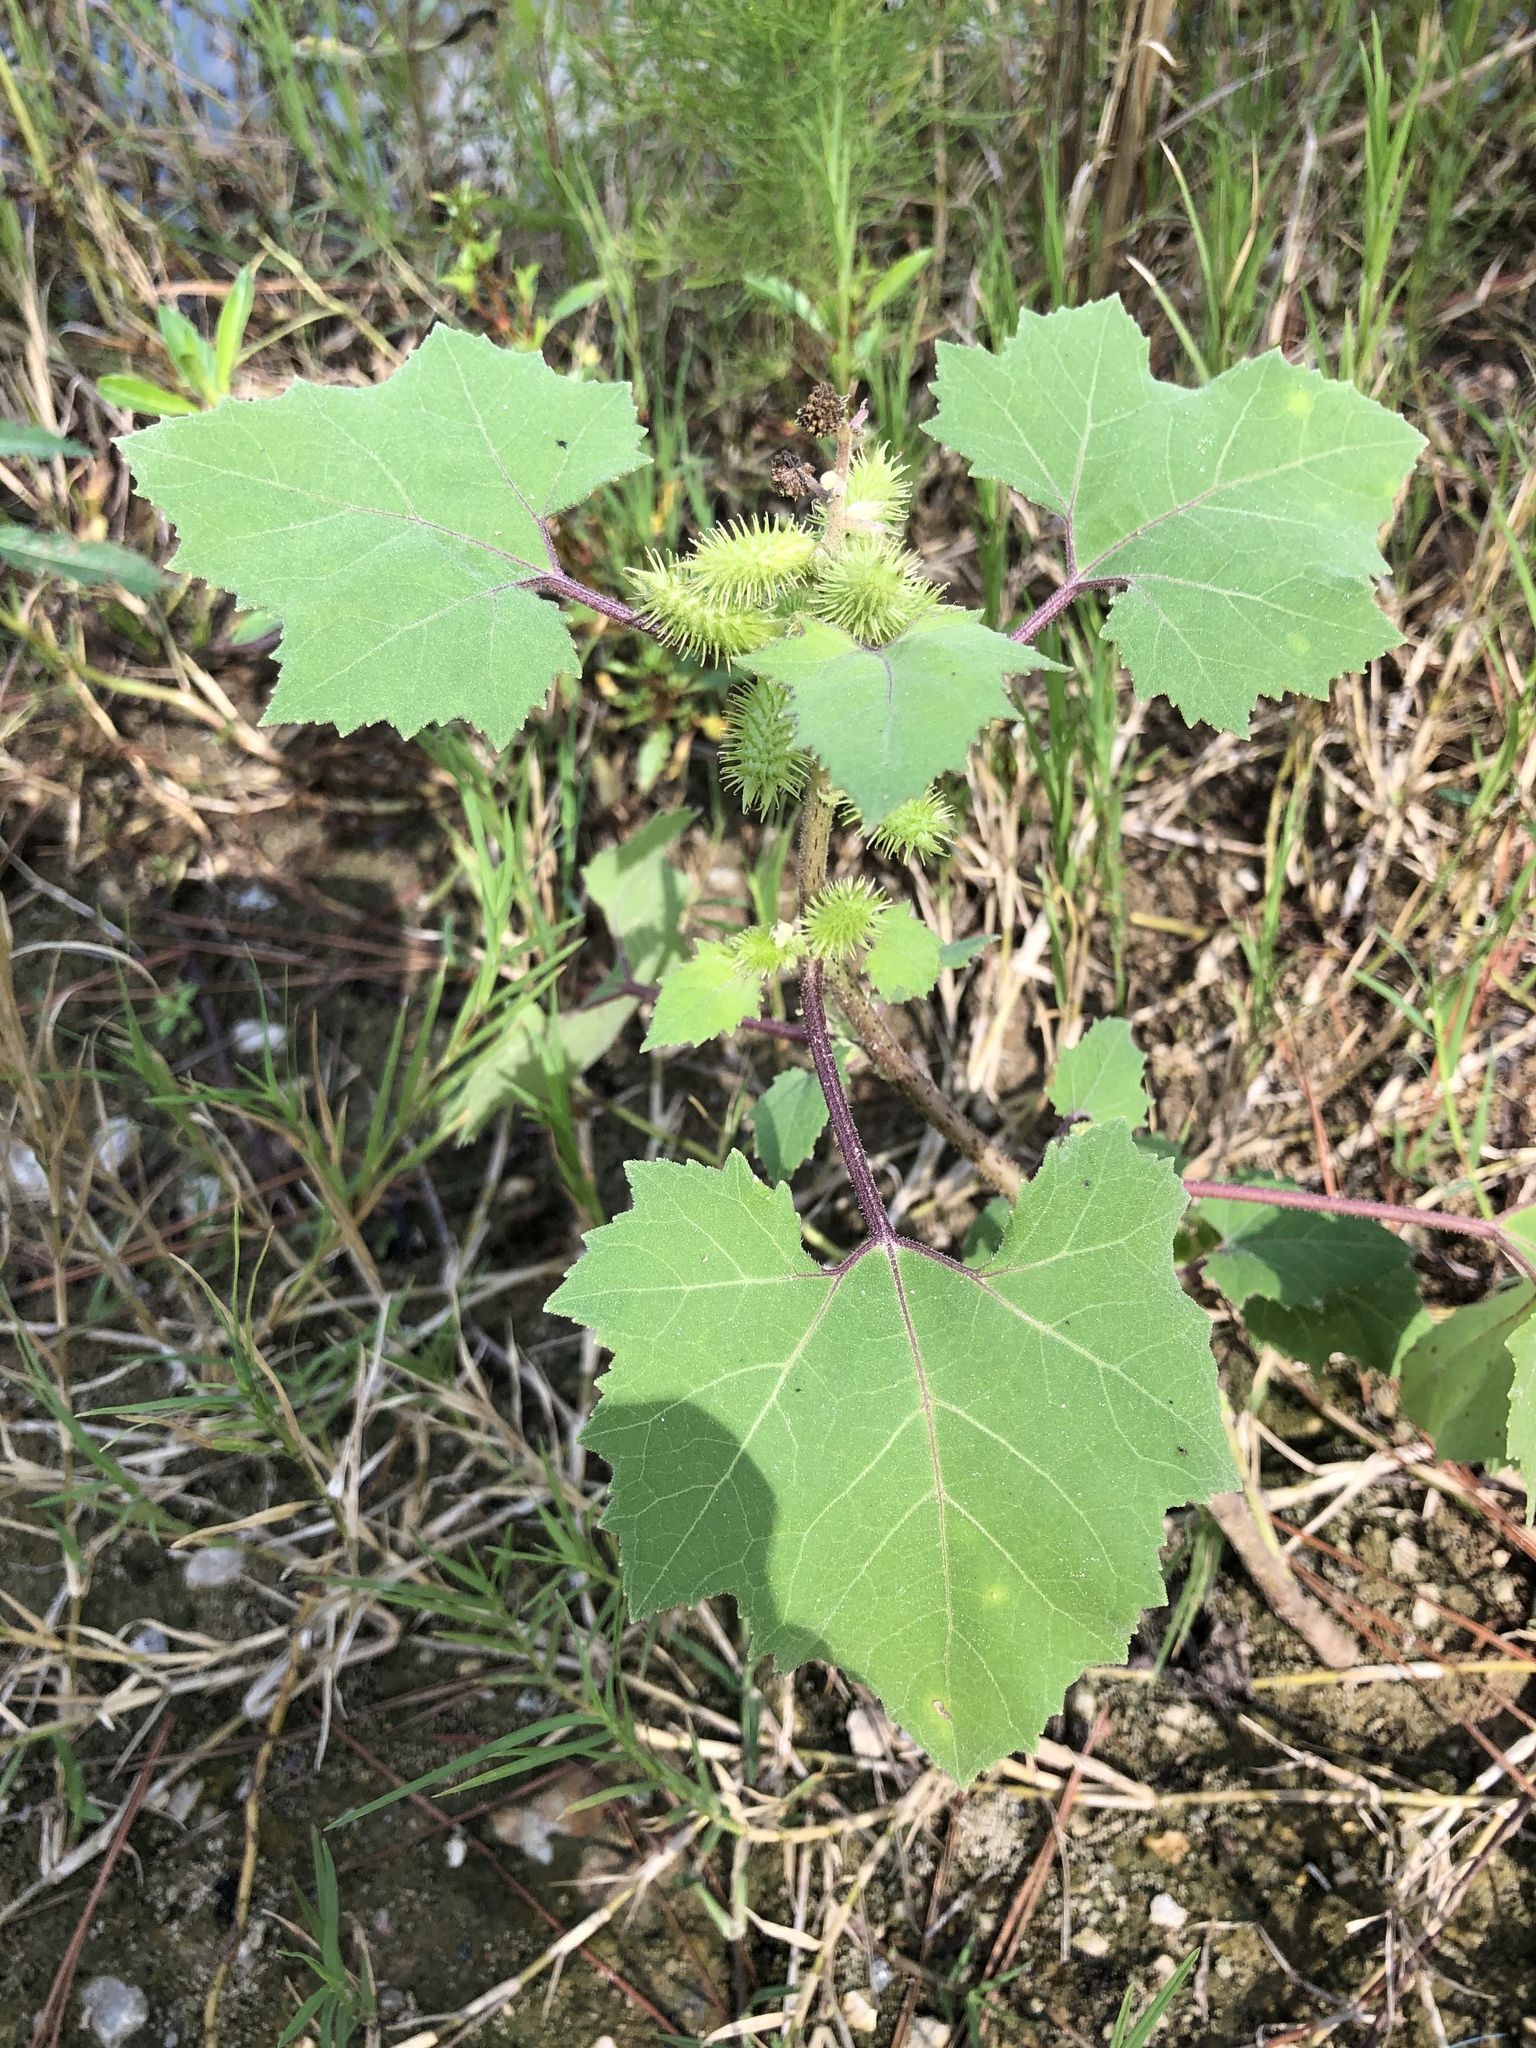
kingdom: Plantae
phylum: Tracheophyta
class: Magnoliopsida
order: Asterales
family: Asteraceae
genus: Xanthium
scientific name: Xanthium strumarium
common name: Rough cocklebur
